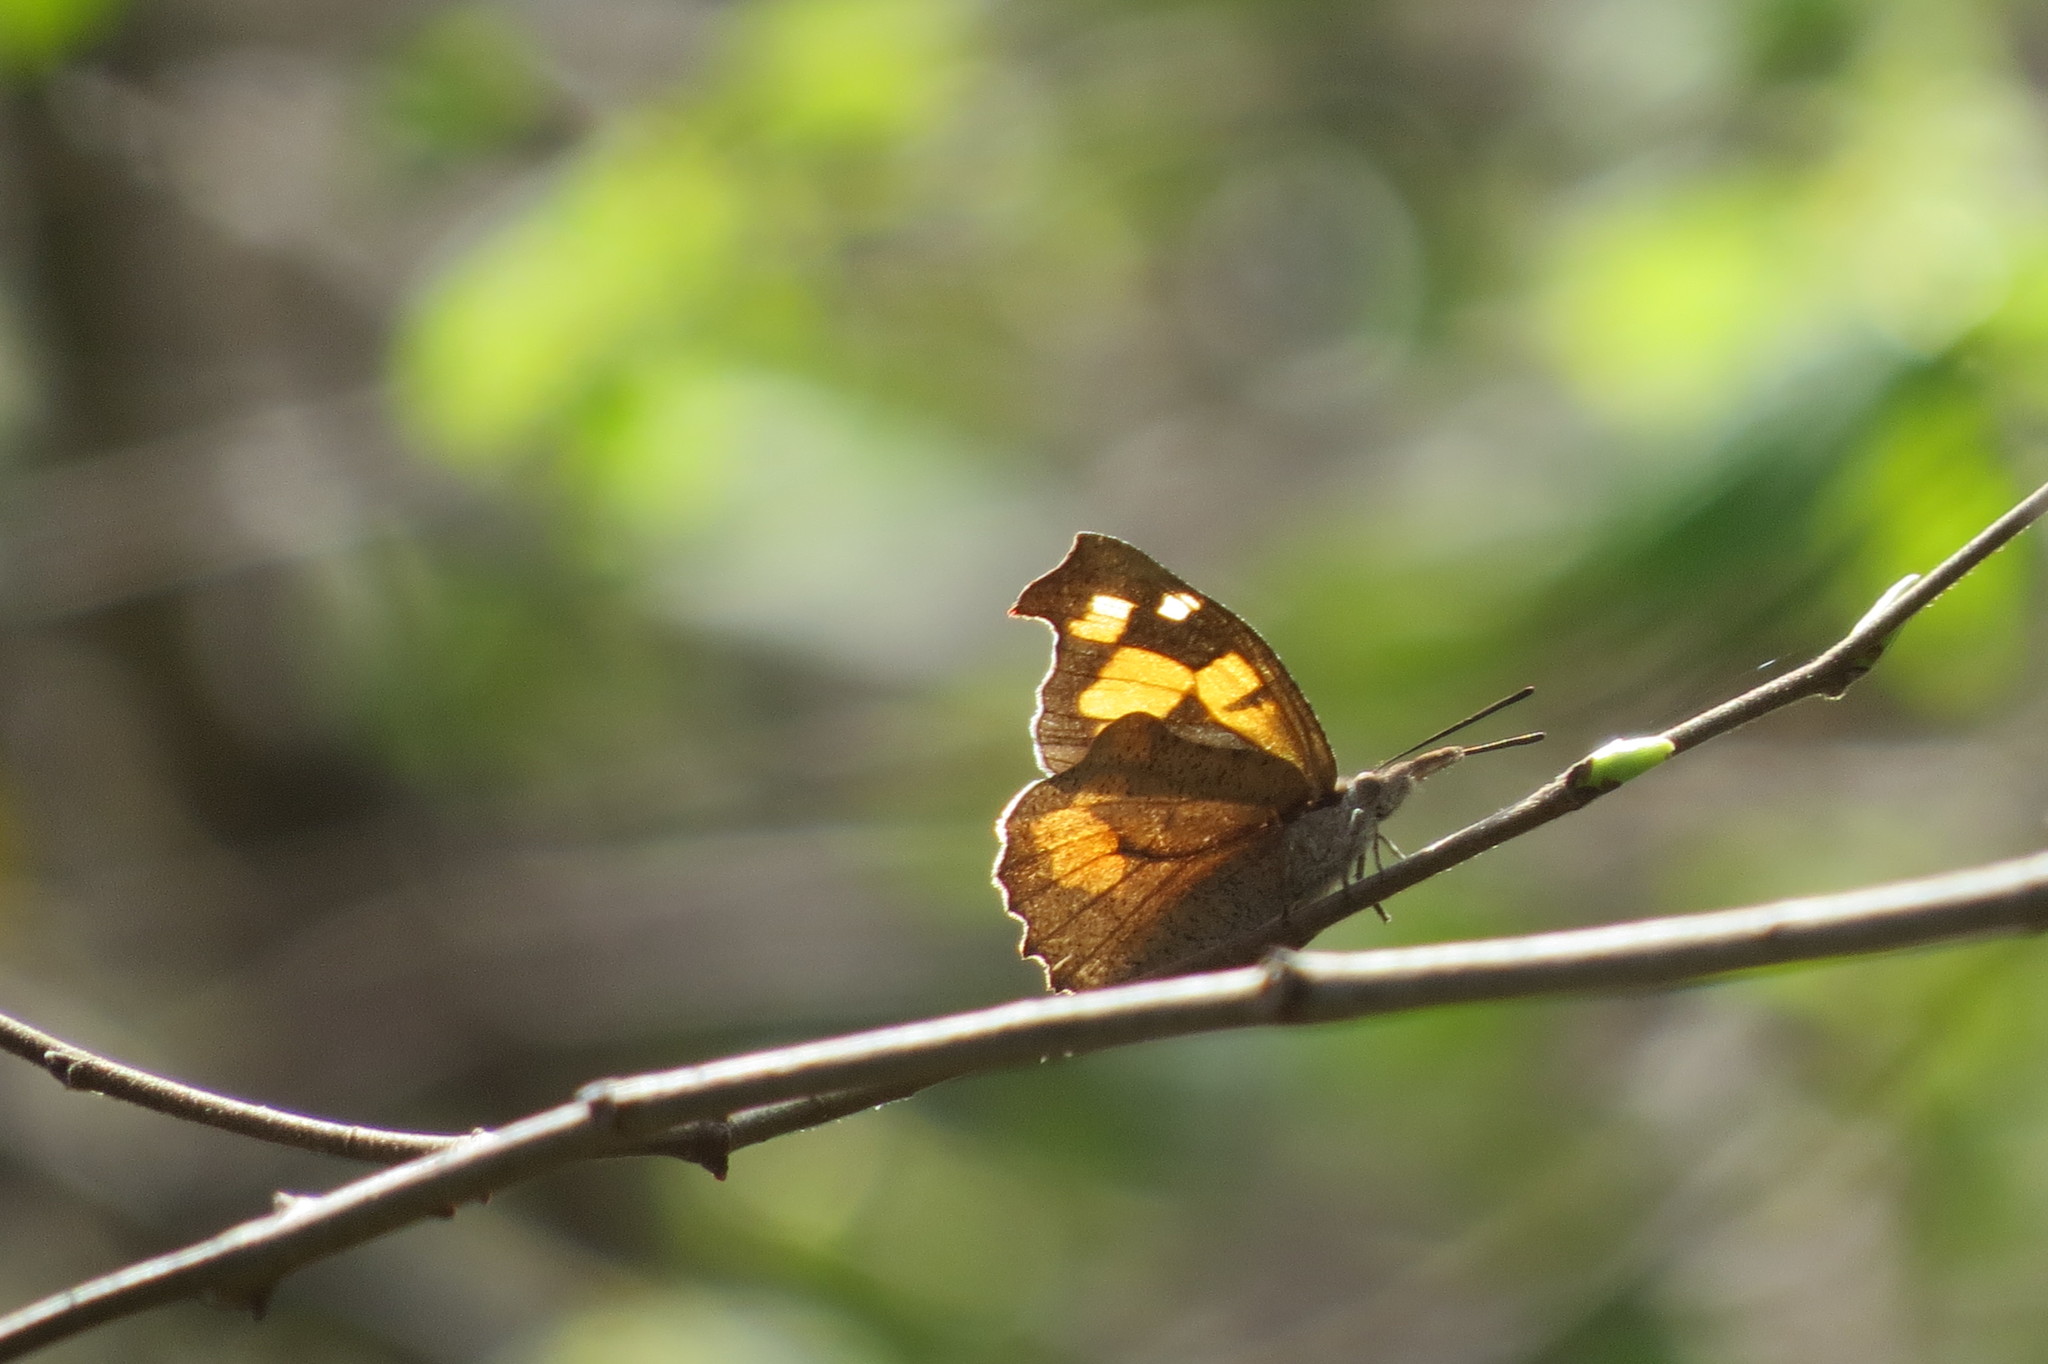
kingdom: Animalia
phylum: Arthropoda
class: Insecta
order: Lepidoptera
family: Nymphalidae
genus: Libythea
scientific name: Libythea celtis
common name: Nettle-tree butterfly
